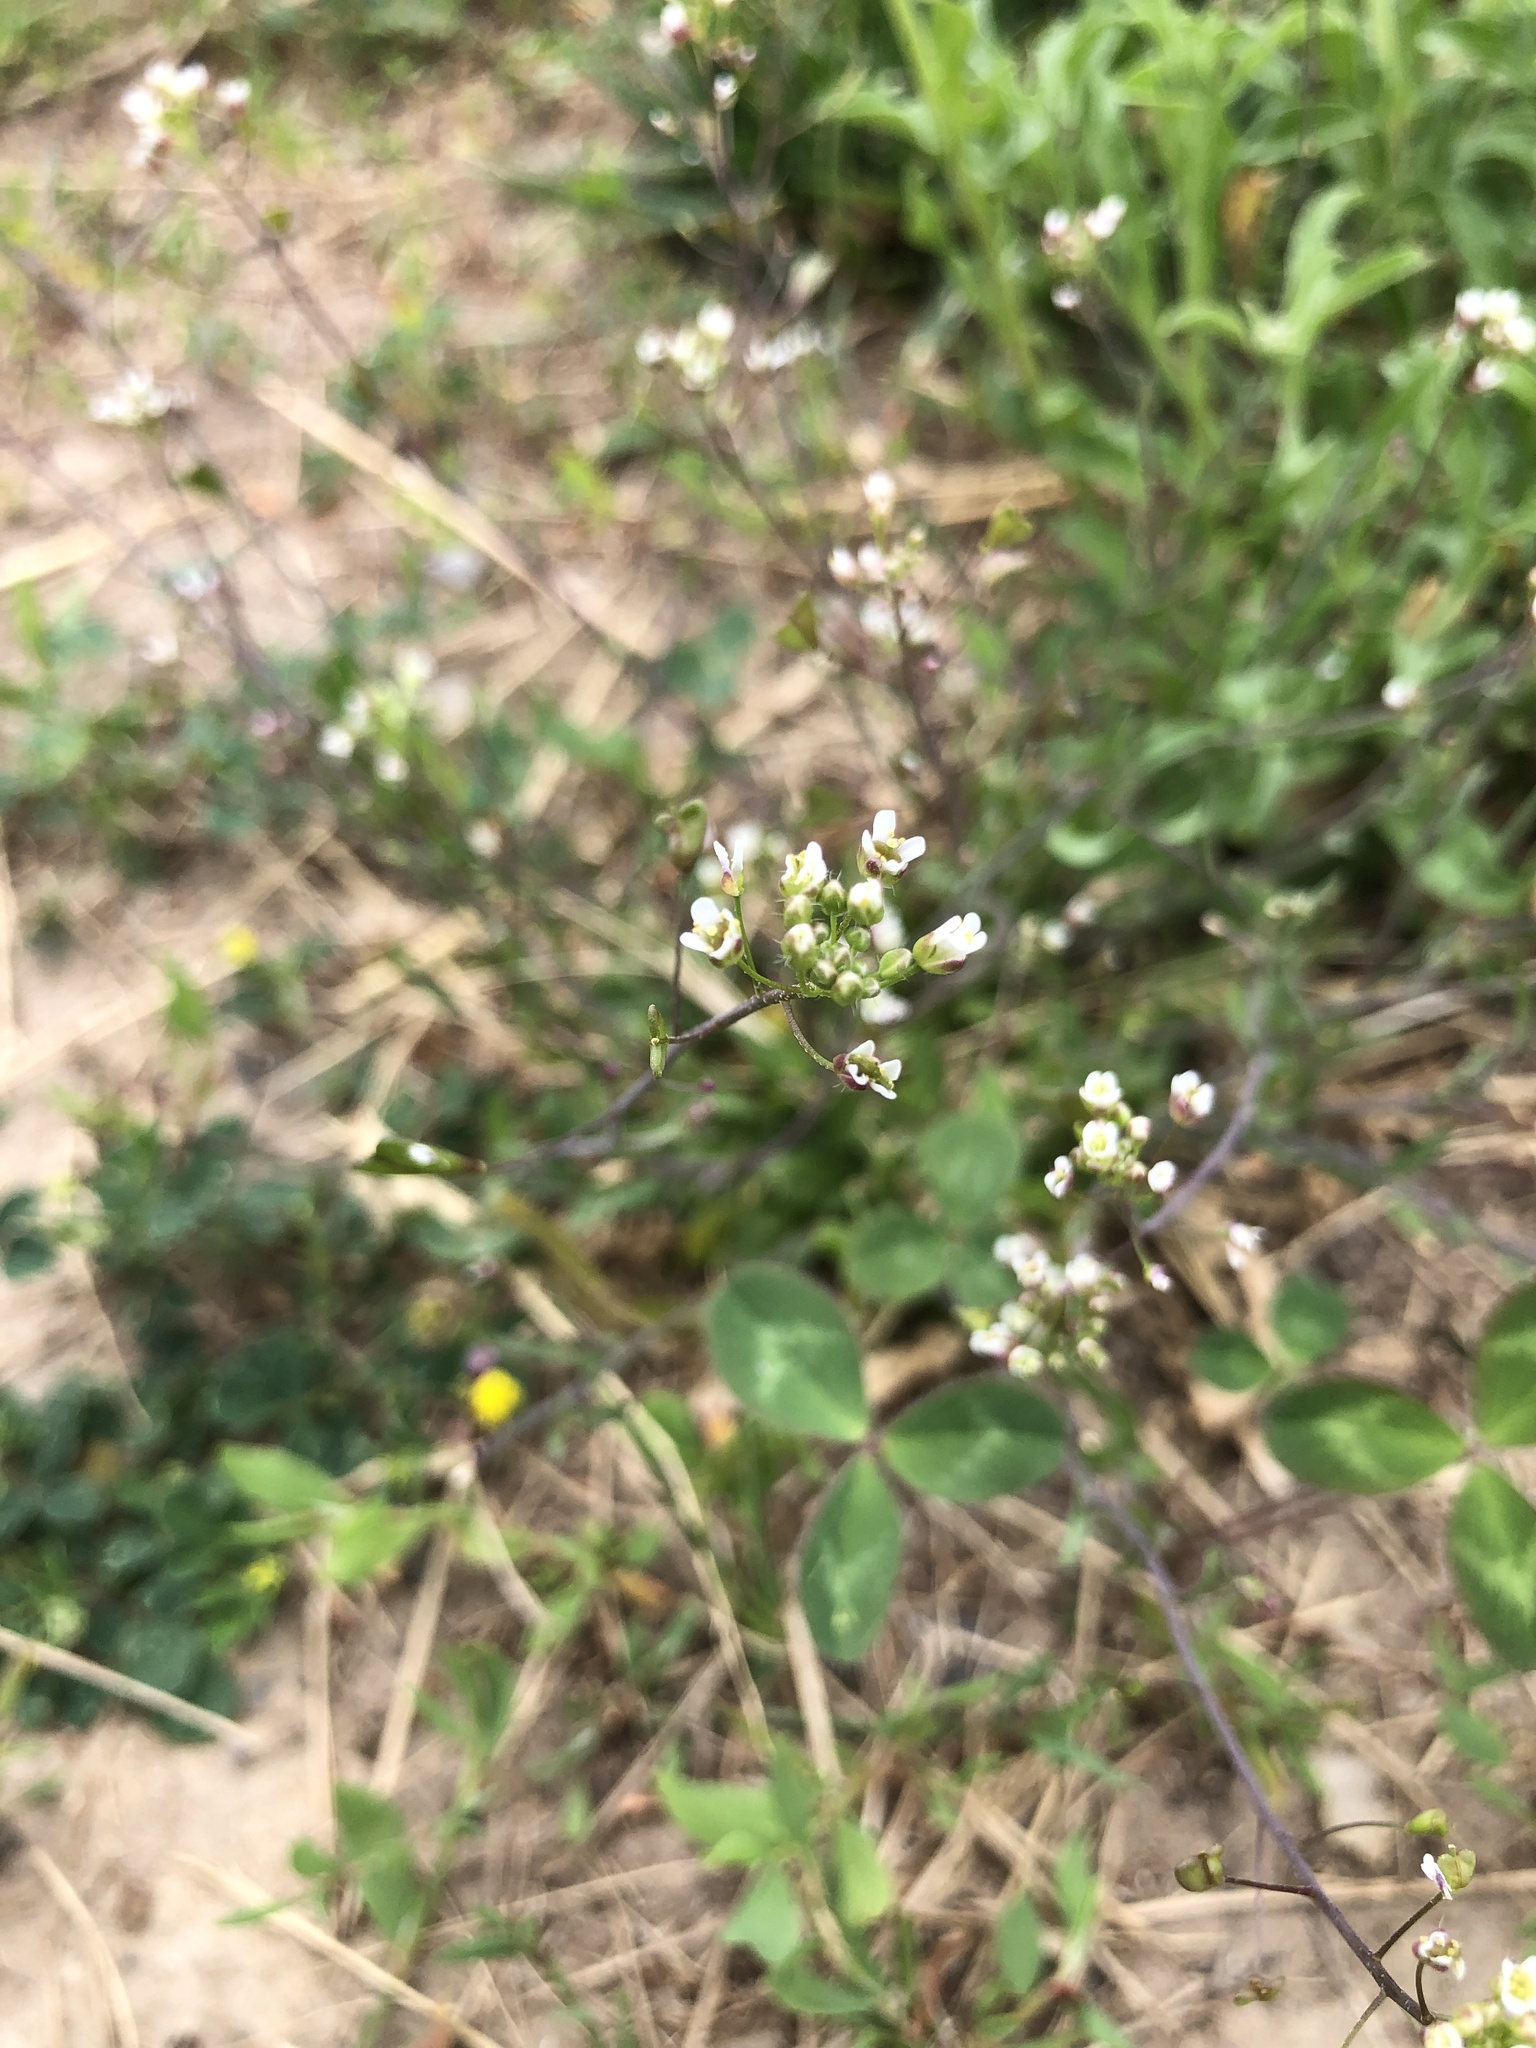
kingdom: Plantae
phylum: Tracheophyta
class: Magnoliopsida
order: Brassicales
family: Brassicaceae
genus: Capsella
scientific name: Capsella bursa-pastoris
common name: Shepherd's purse
